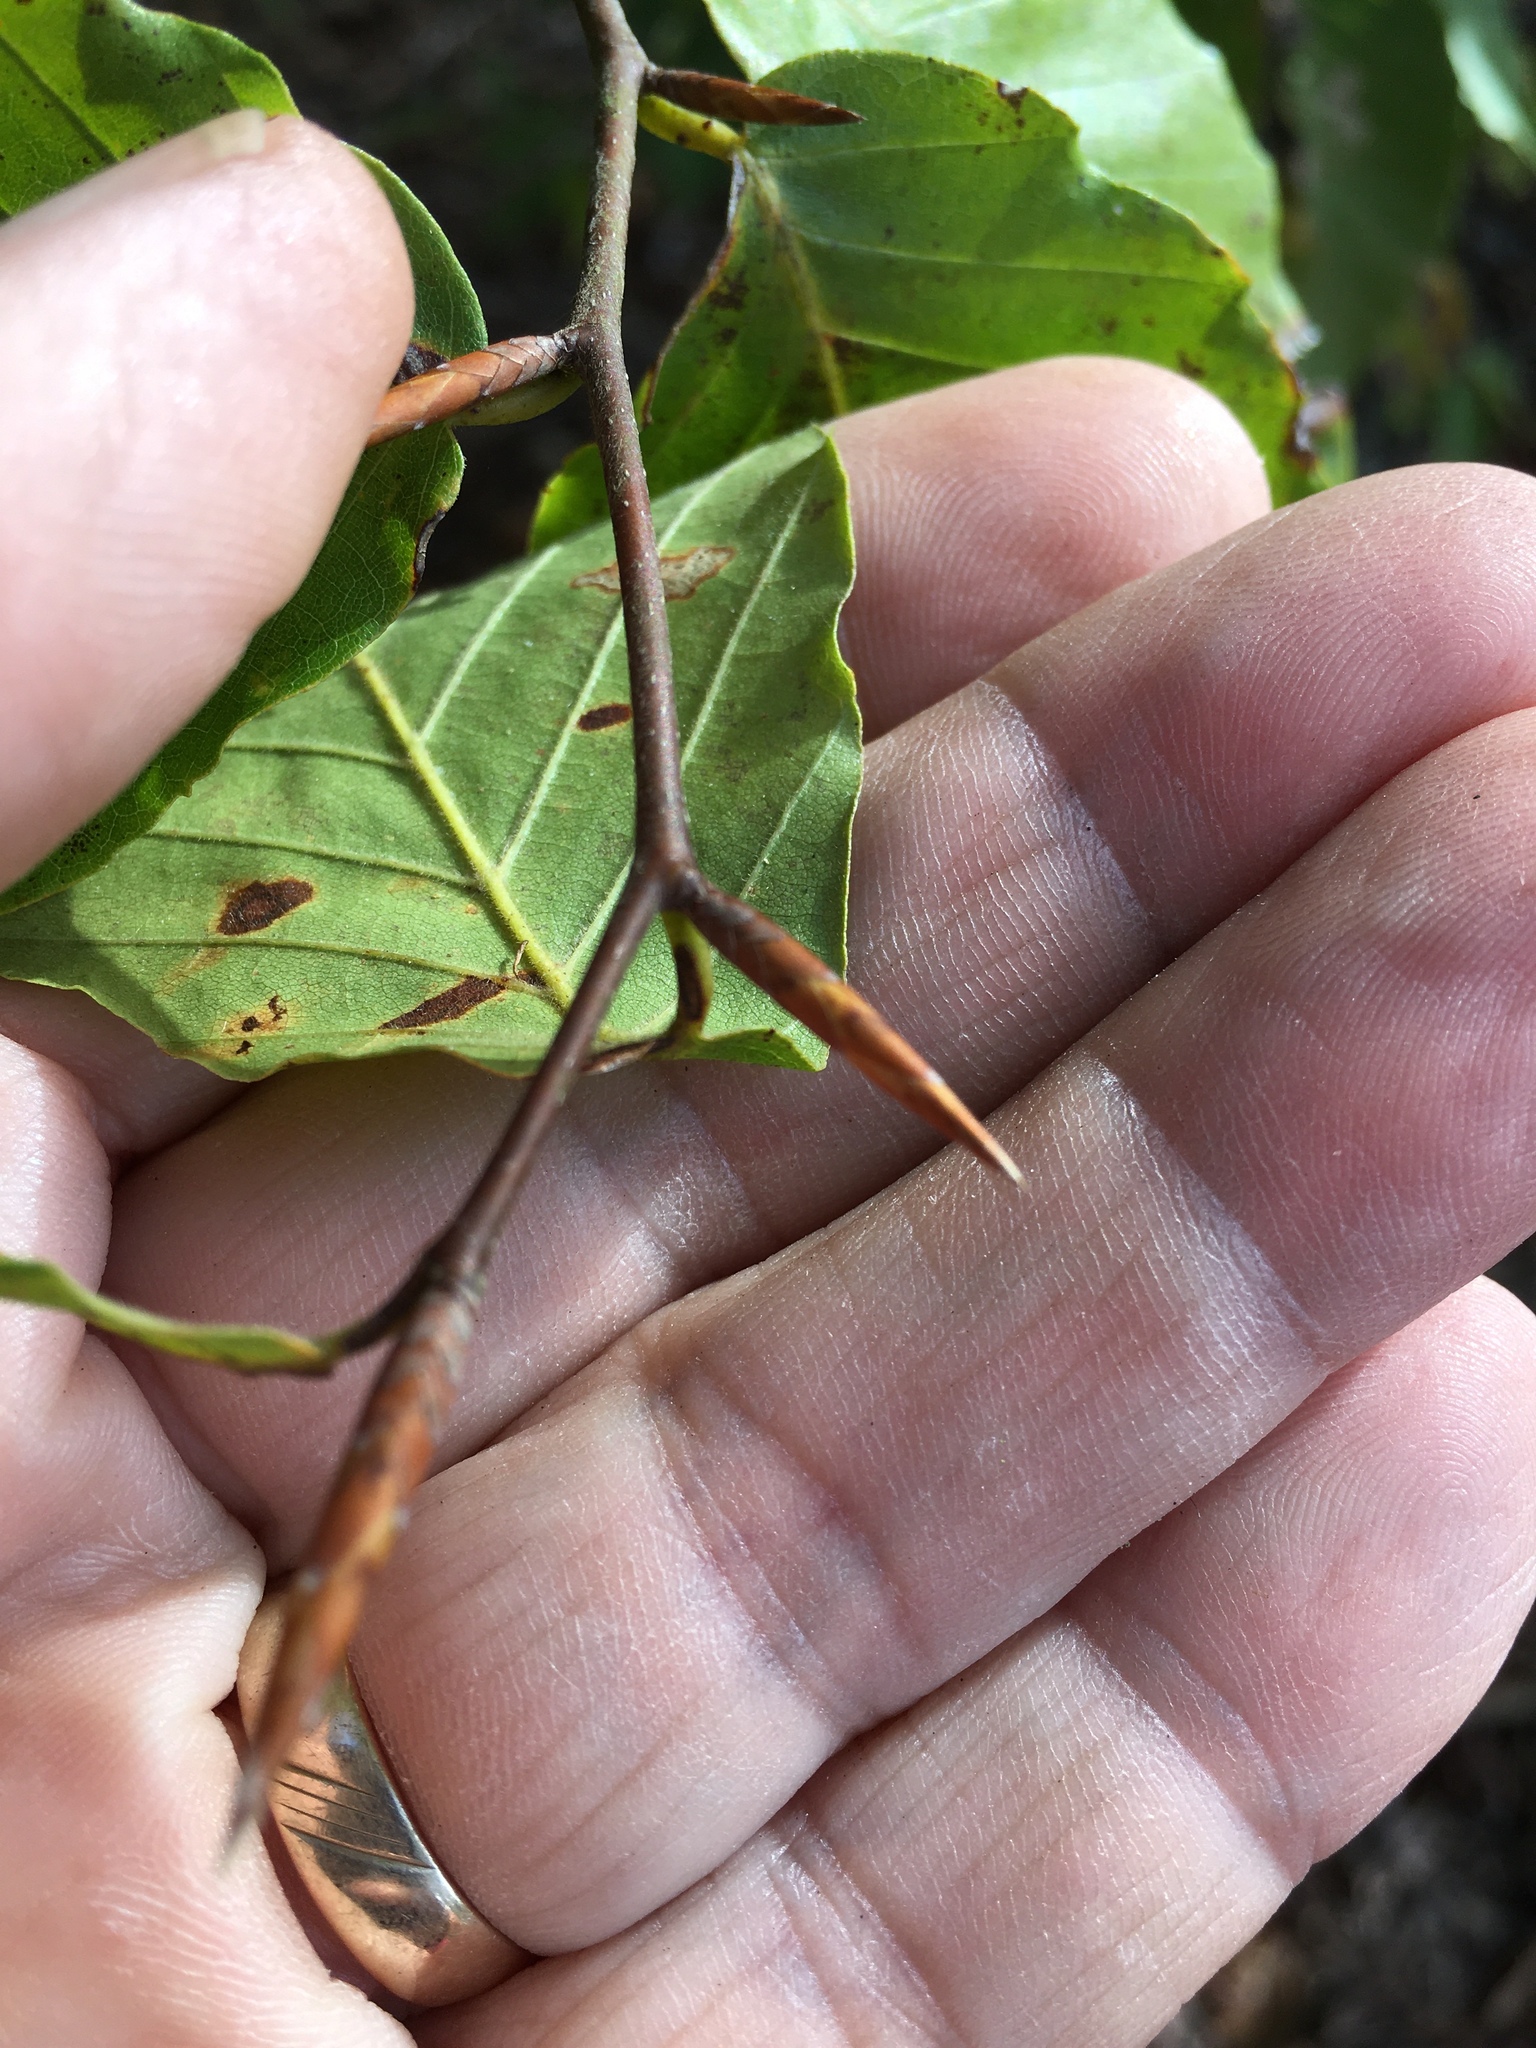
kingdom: Plantae
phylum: Tracheophyta
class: Magnoliopsida
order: Fagales
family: Fagaceae
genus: Fagus
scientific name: Fagus grandifolia
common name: American beech
